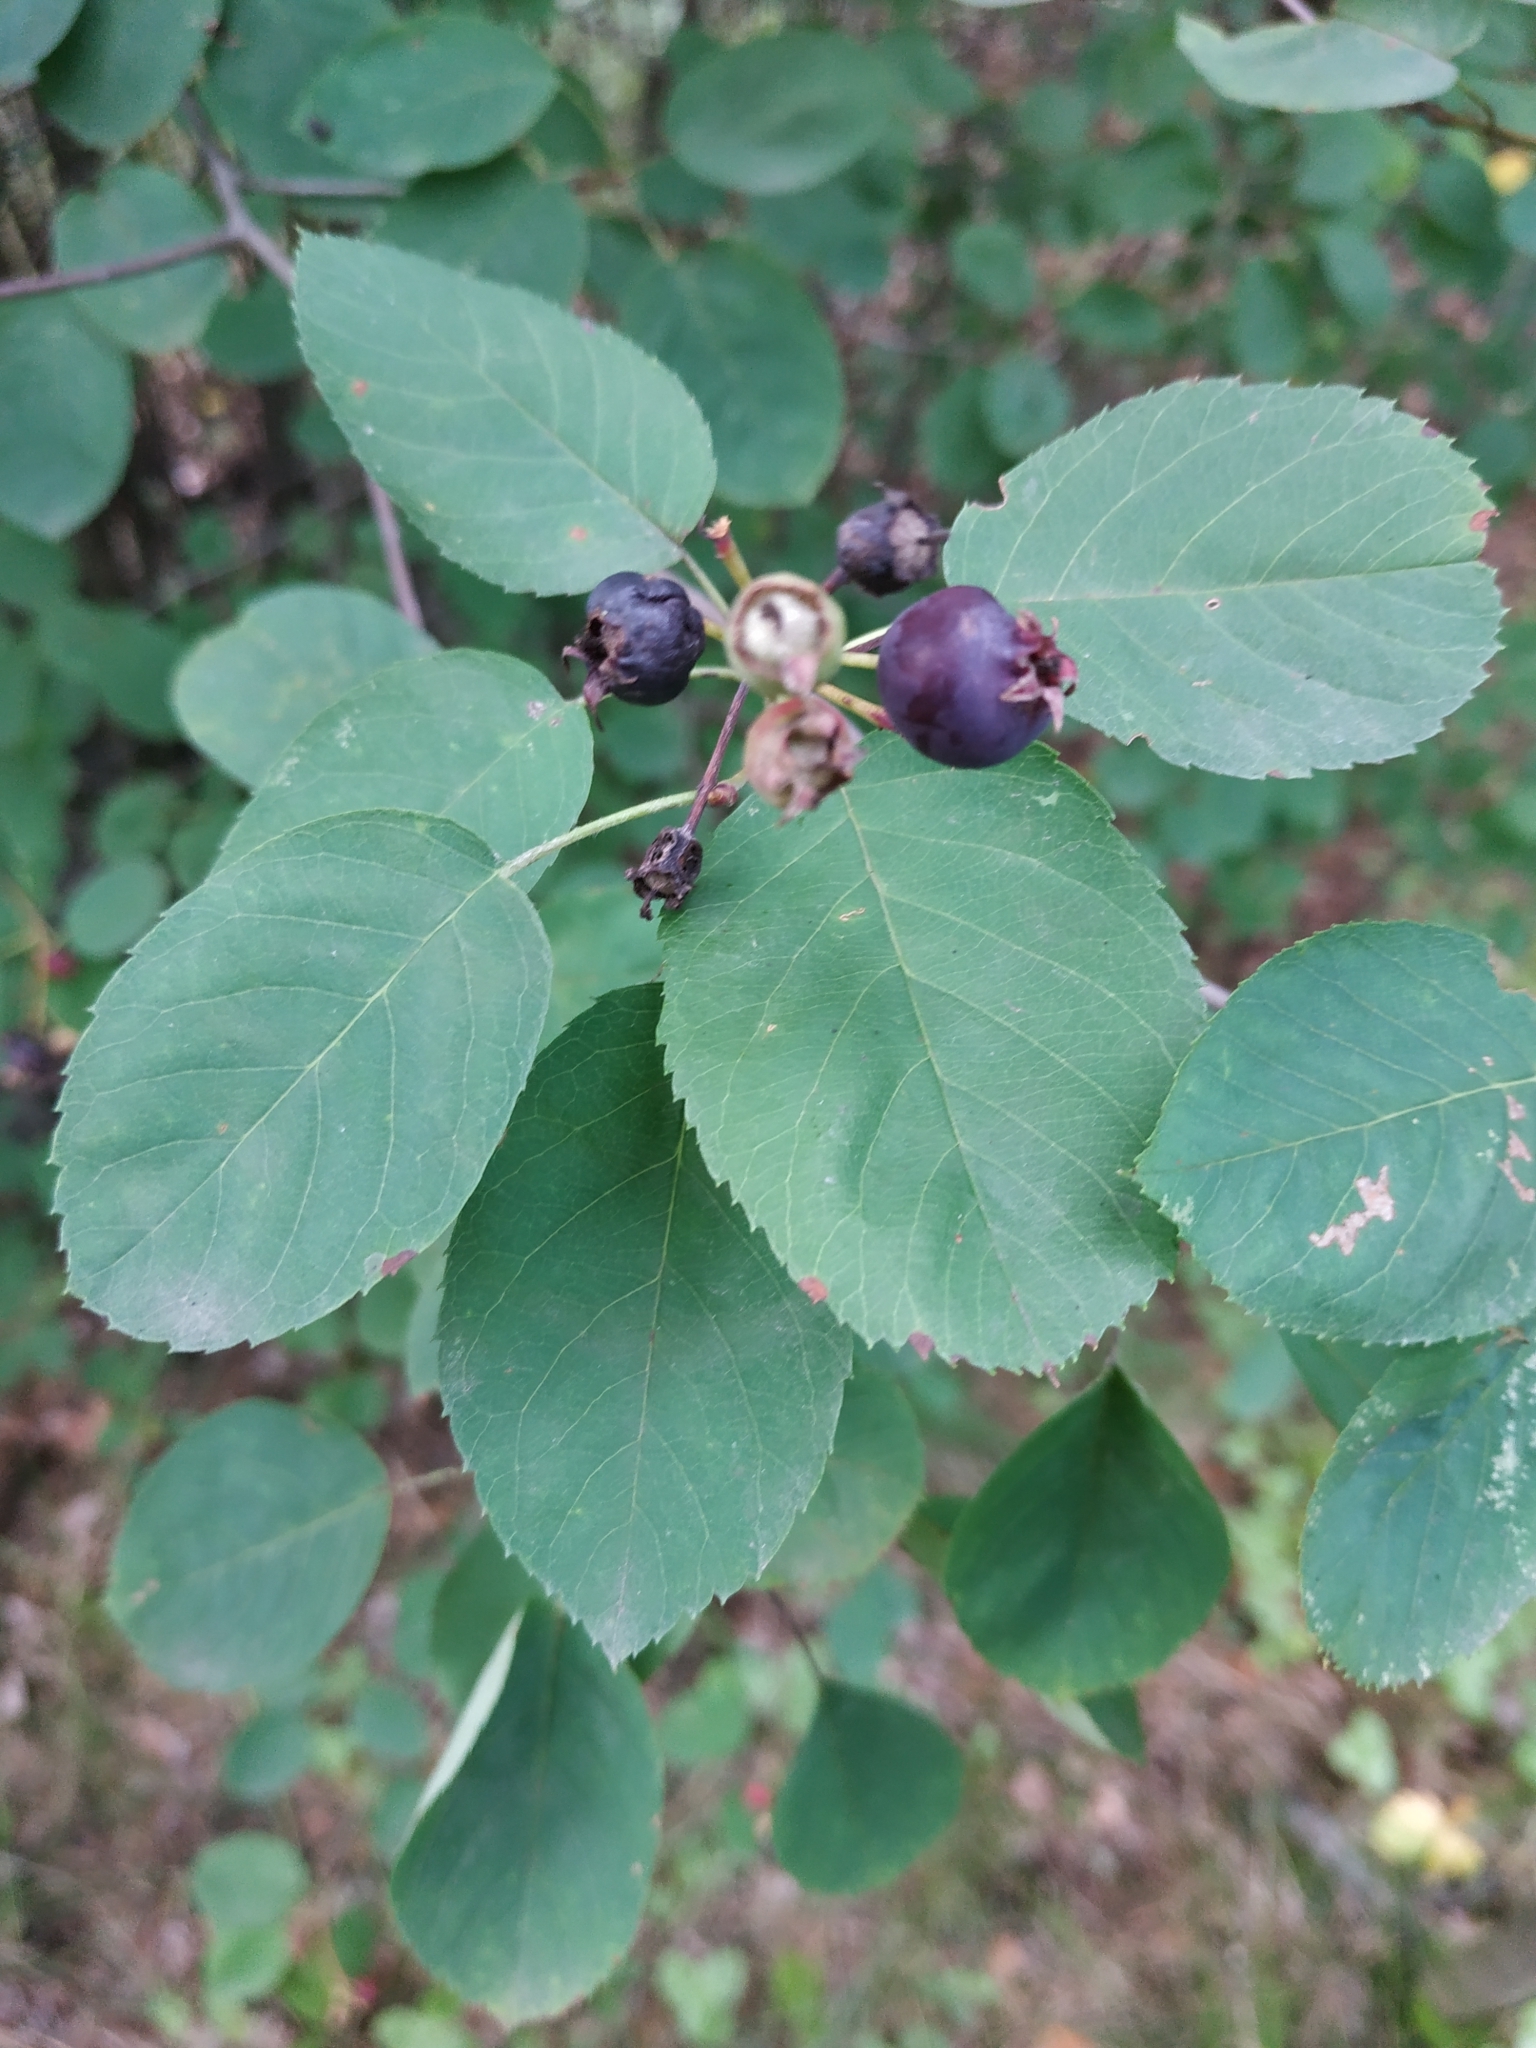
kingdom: Plantae
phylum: Tracheophyta
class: Magnoliopsida
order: Rosales
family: Rosaceae
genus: Amelanchier
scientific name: Amelanchier
